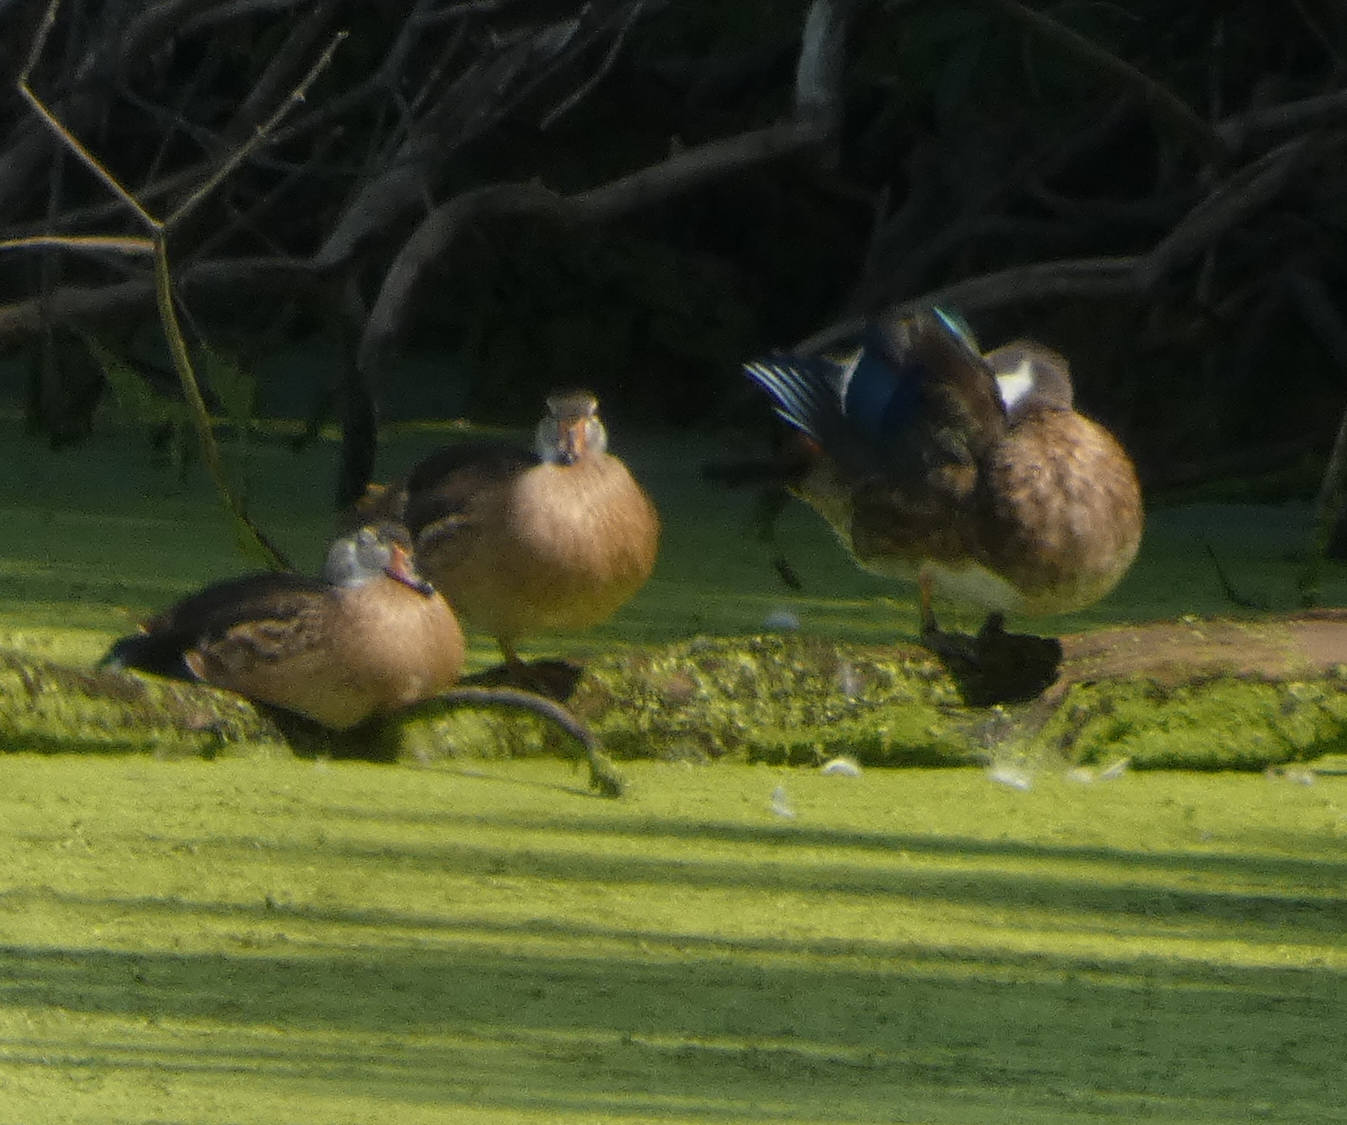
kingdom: Animalia
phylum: Chordata
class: Aves
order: Anseriformes
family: Anatidae
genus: Aix
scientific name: Aix sponsa
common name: Wood duck
